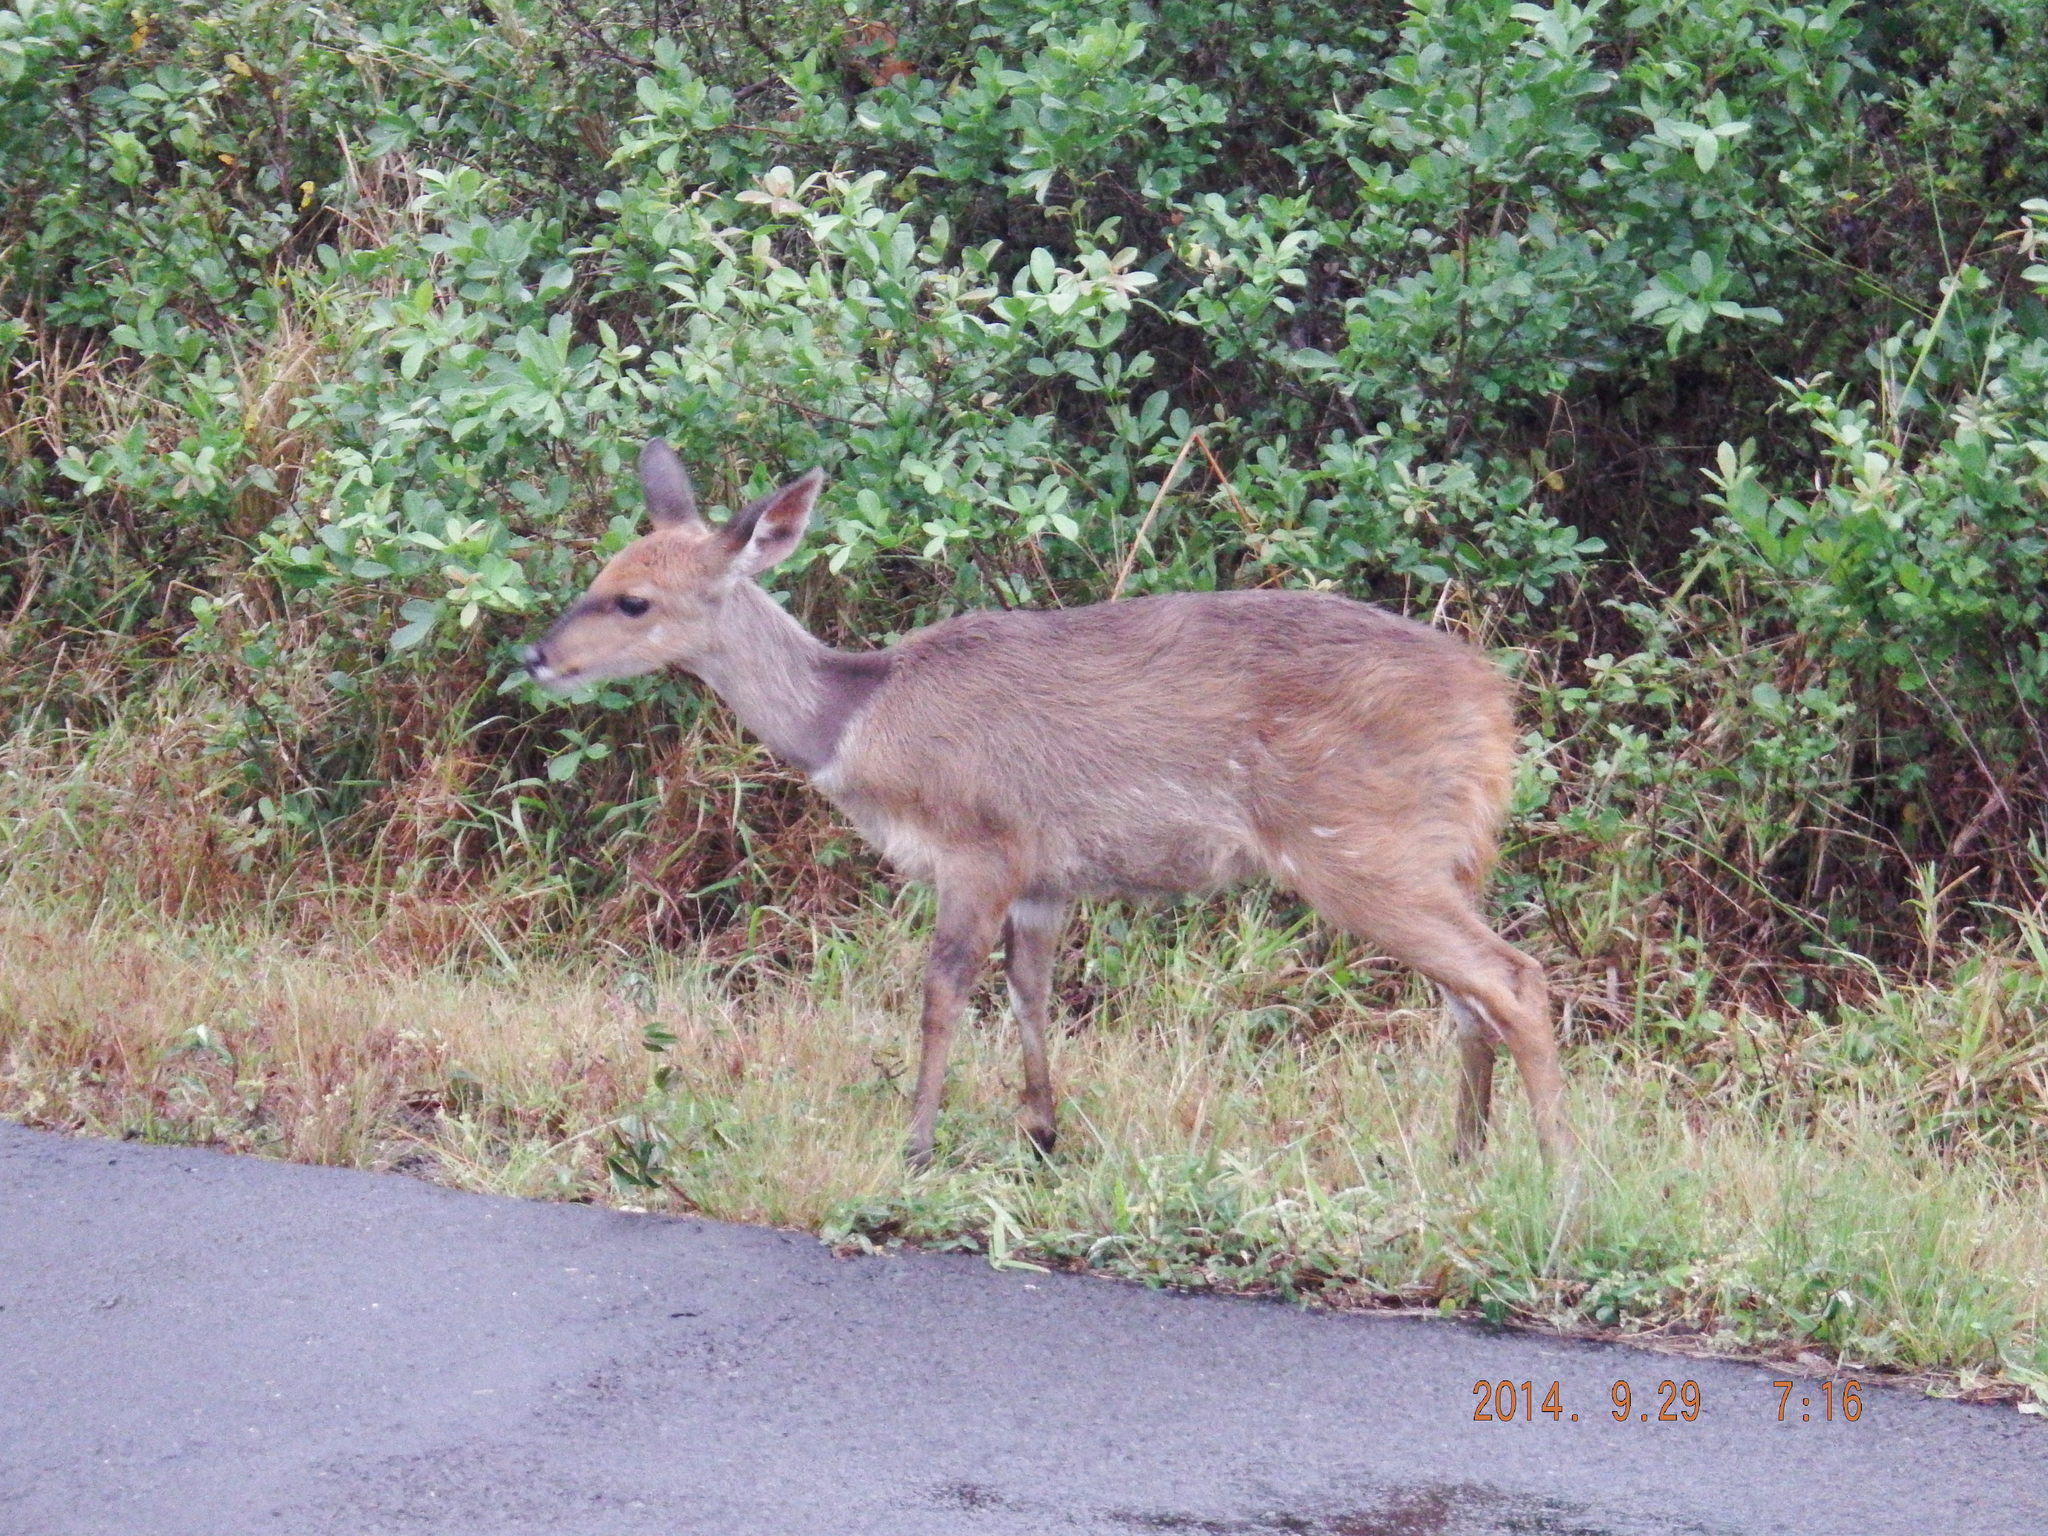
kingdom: Animalia
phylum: Chordata
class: Mammalia
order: Artiodactyla
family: Bovidae
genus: Tragelaphus
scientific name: Tragelaphus scriptus
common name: Bushbuck
